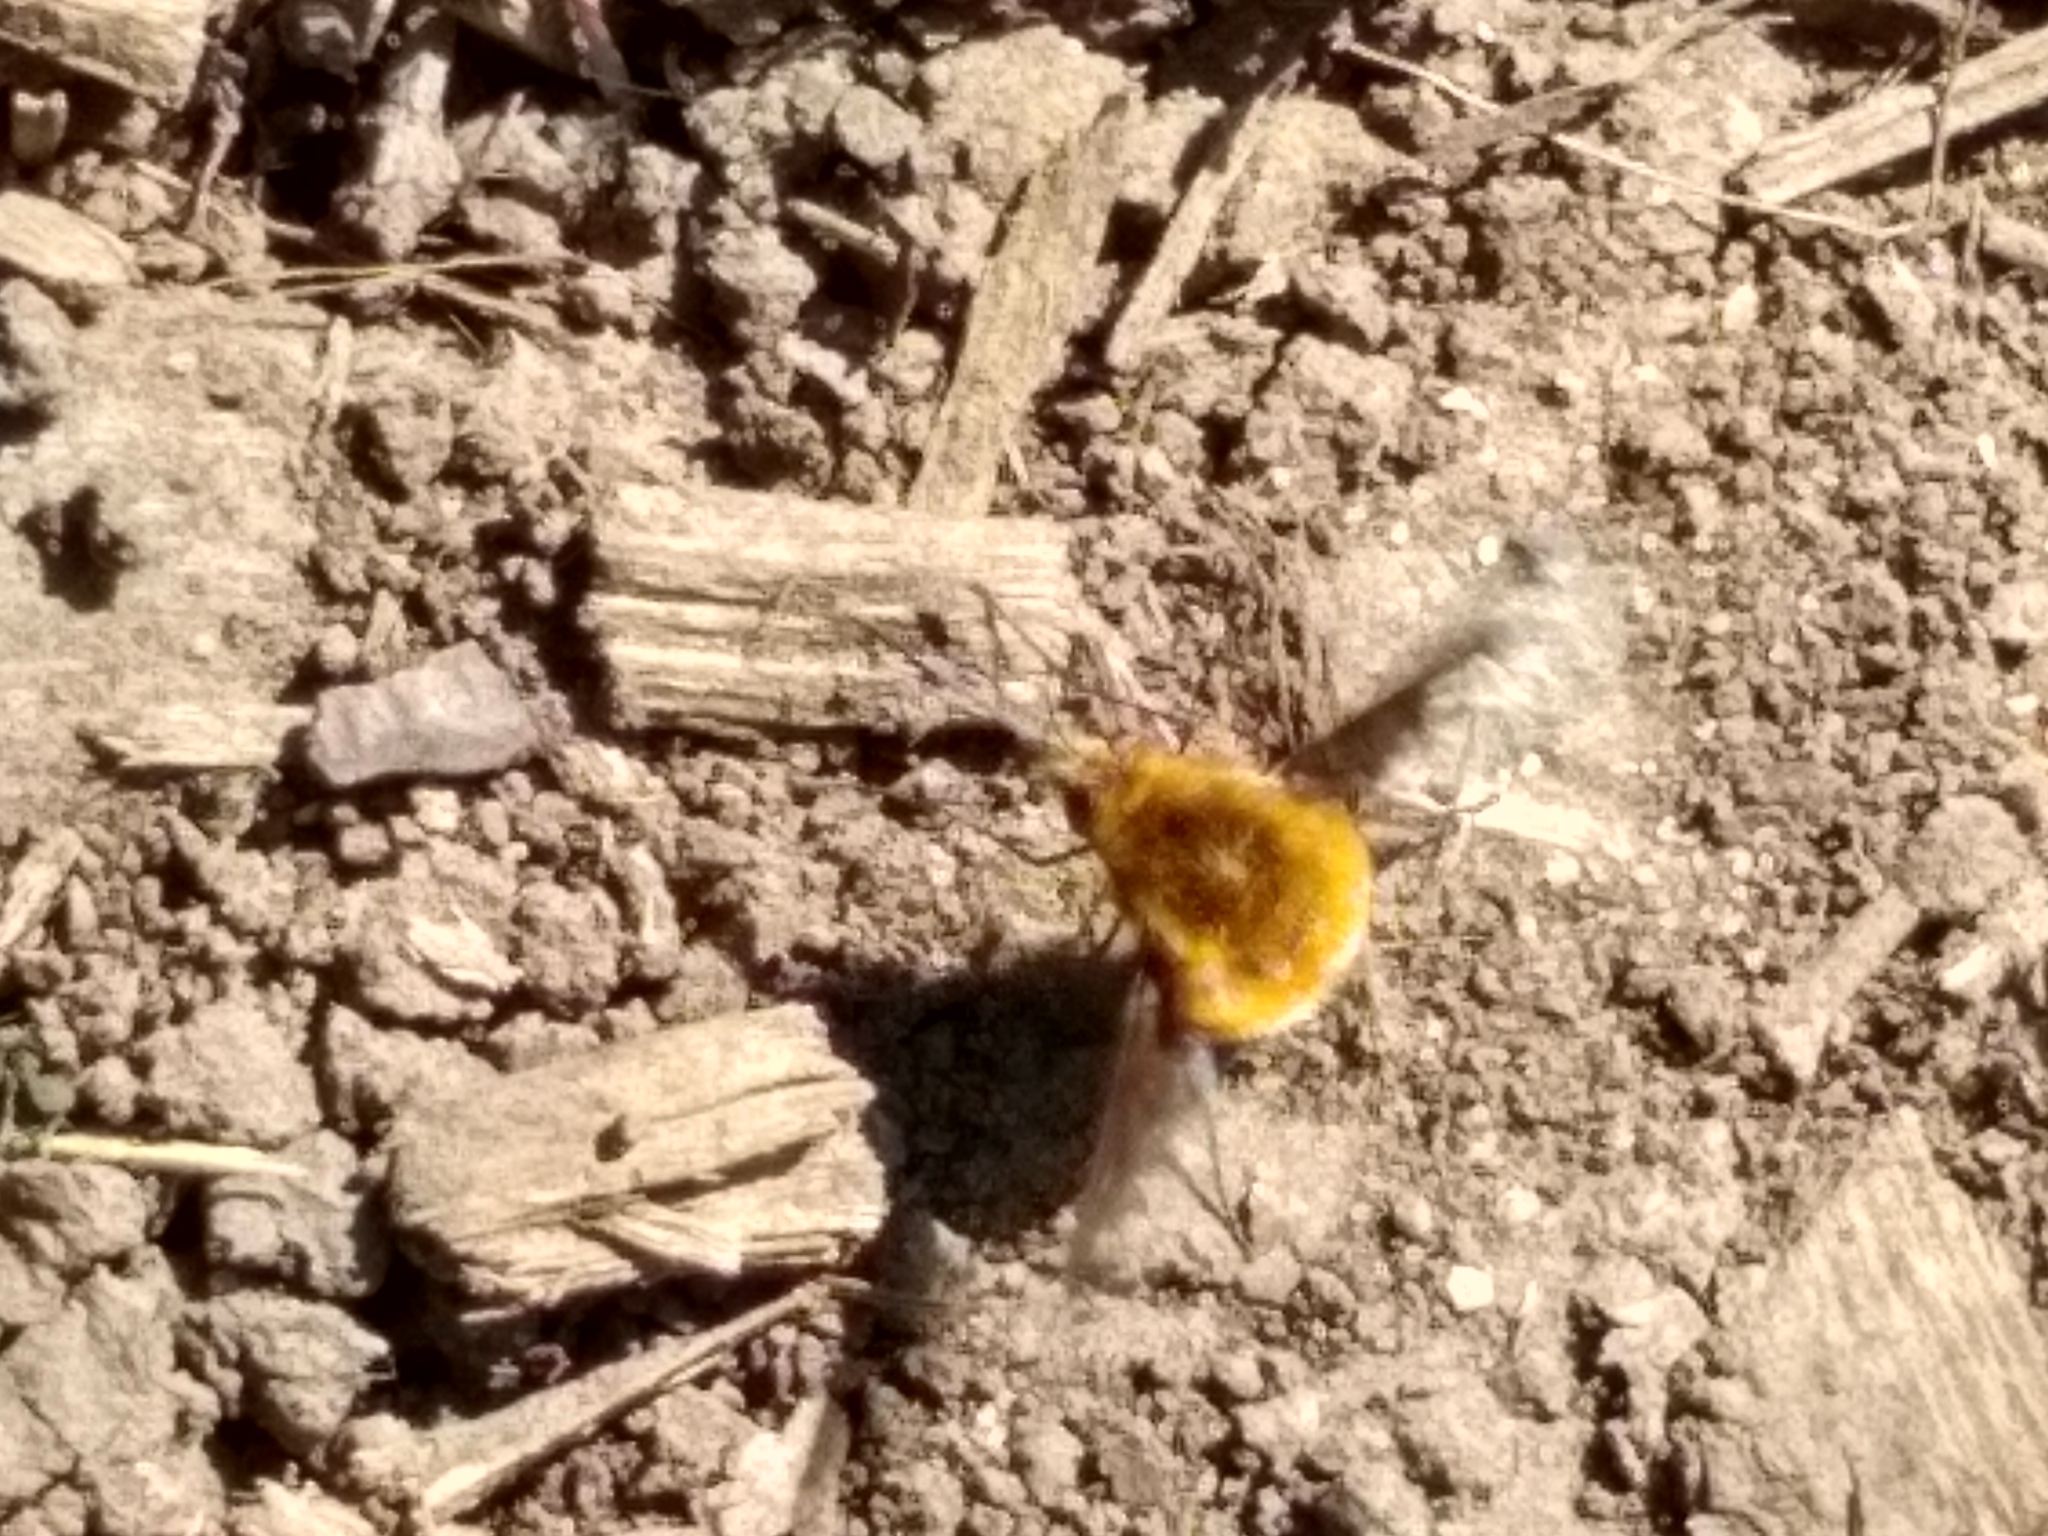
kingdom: Animalia
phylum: Arthropoda
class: Insecta
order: Diptera
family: Bombyliidae
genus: Bombylius
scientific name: Bombylius major
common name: Bee fly
